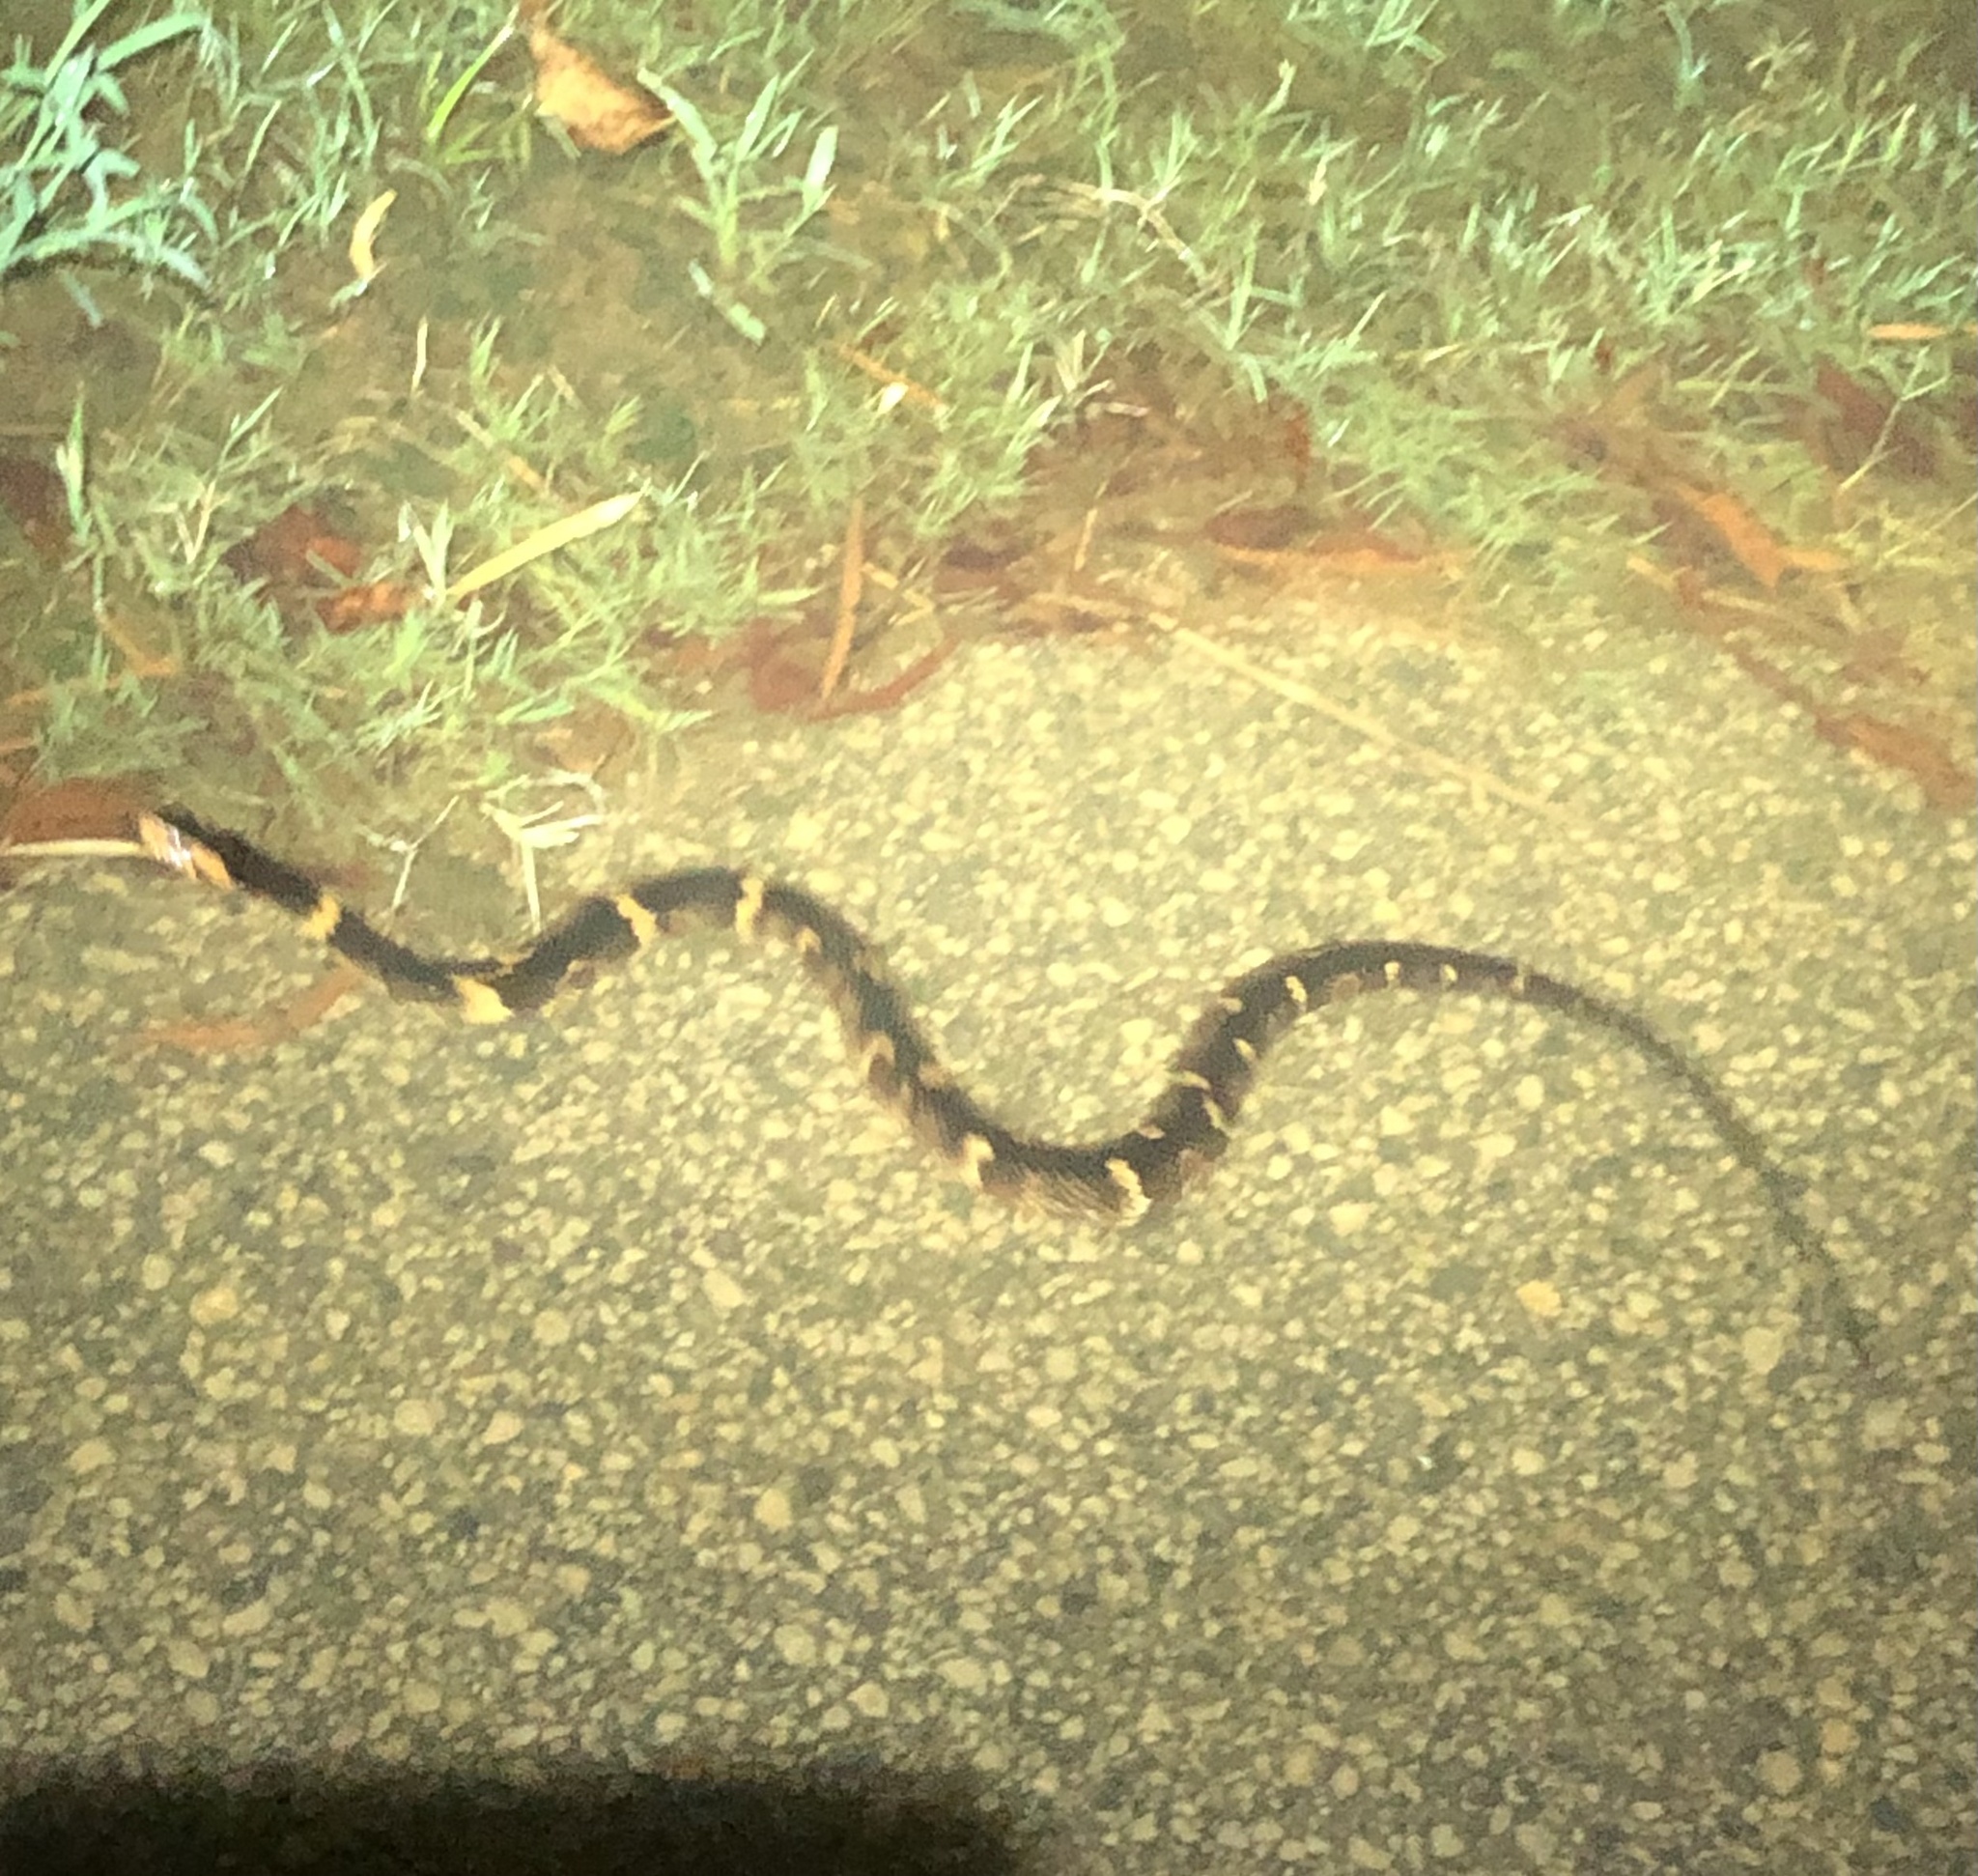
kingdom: Animalia
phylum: Chordata
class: Squamata
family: Colubridae
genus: Nerodia
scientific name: Nerodia fasciata
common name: Southern water snake
